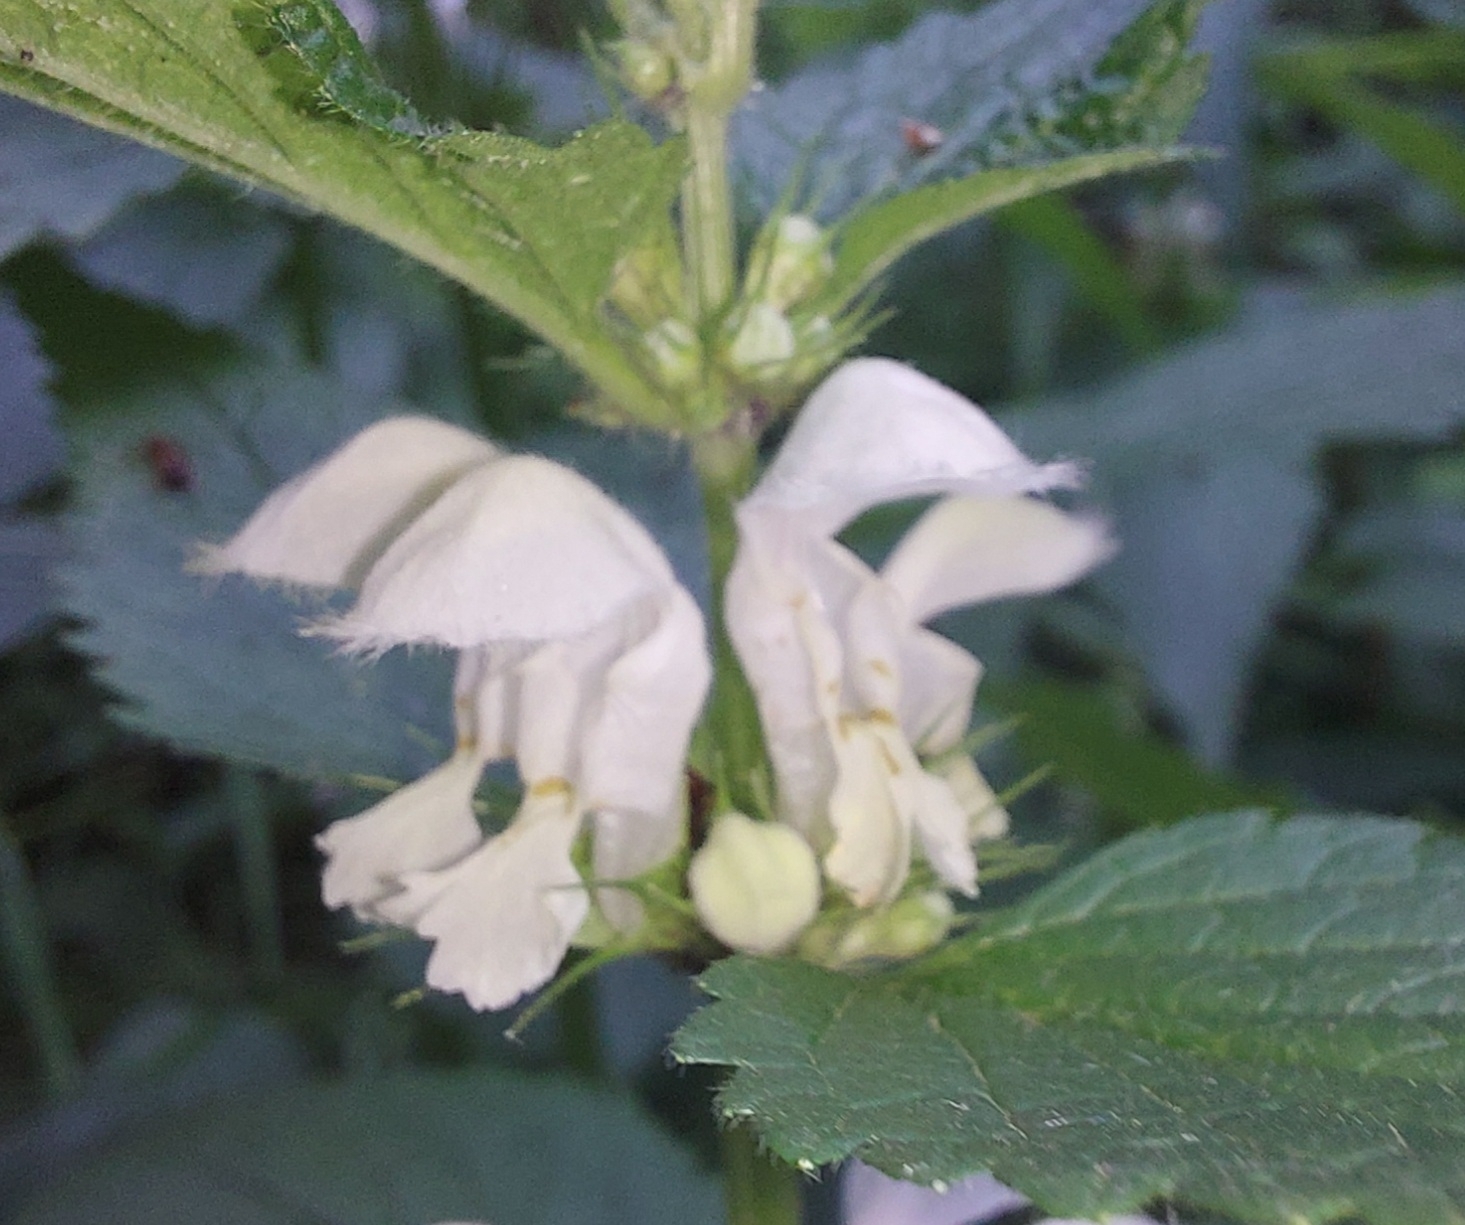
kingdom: Plantae
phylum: Tracheophyta
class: Magnoliopsida
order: Lamiales
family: Lamiaceae
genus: Lamium
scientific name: Lamium album
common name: White dead-nettle
